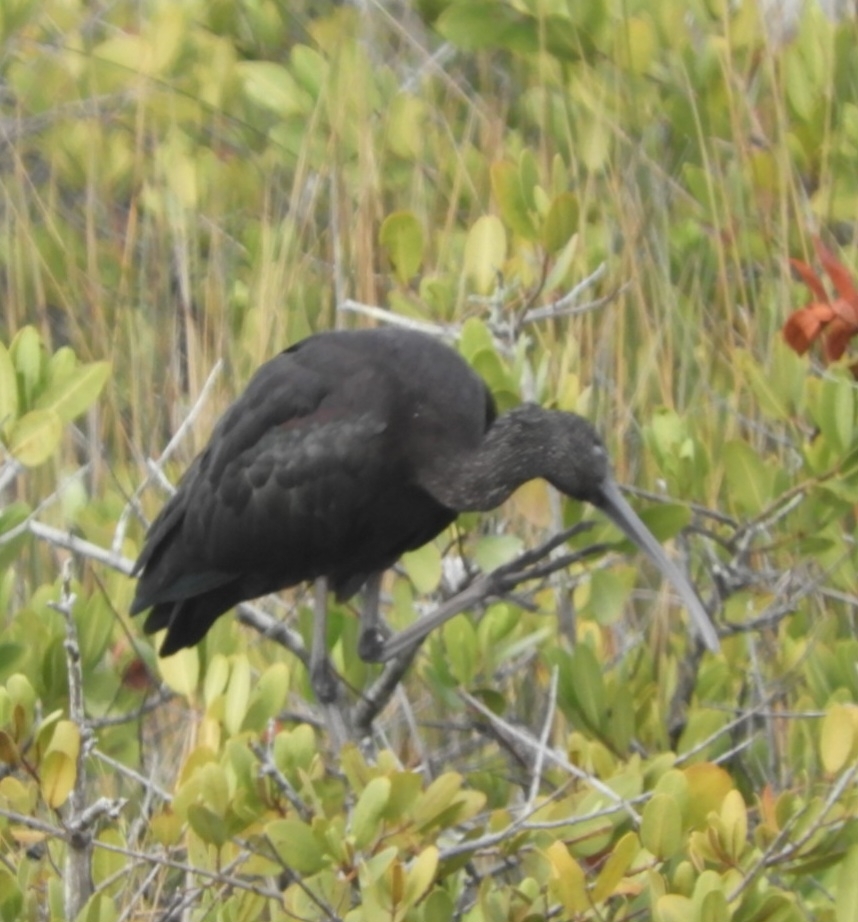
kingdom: Animalia
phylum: Chordata
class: Aves
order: Pelecaniformes
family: Threskiornithidae
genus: Plegadis
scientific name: Plegadis falcinellus
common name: Glossy ibis
